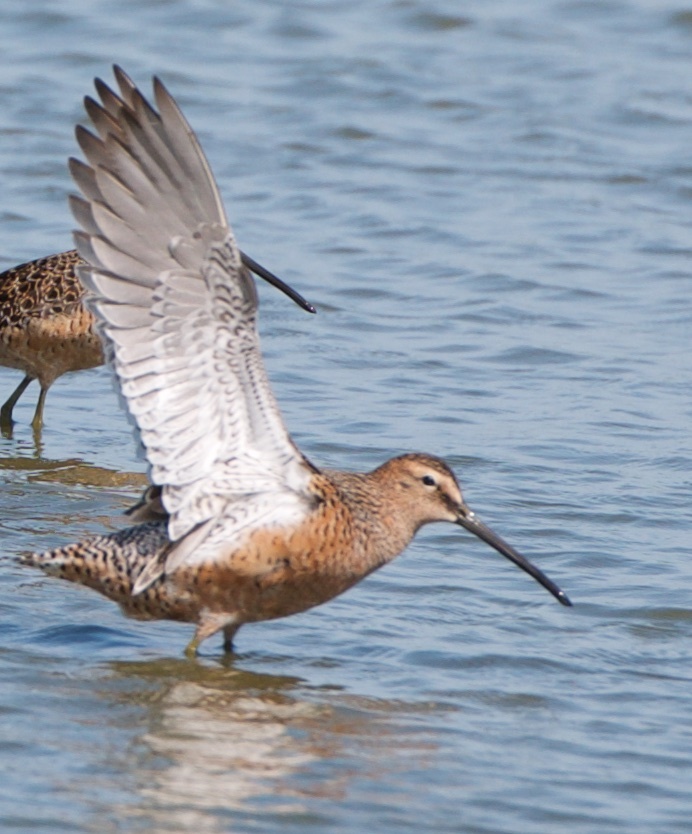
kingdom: Animalia
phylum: Chordata
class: Aves
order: Charadriiformes
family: Scolopacidae
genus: Limnodromus
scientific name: Limnodromus scolopaceus
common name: Long-billed dowitcher
